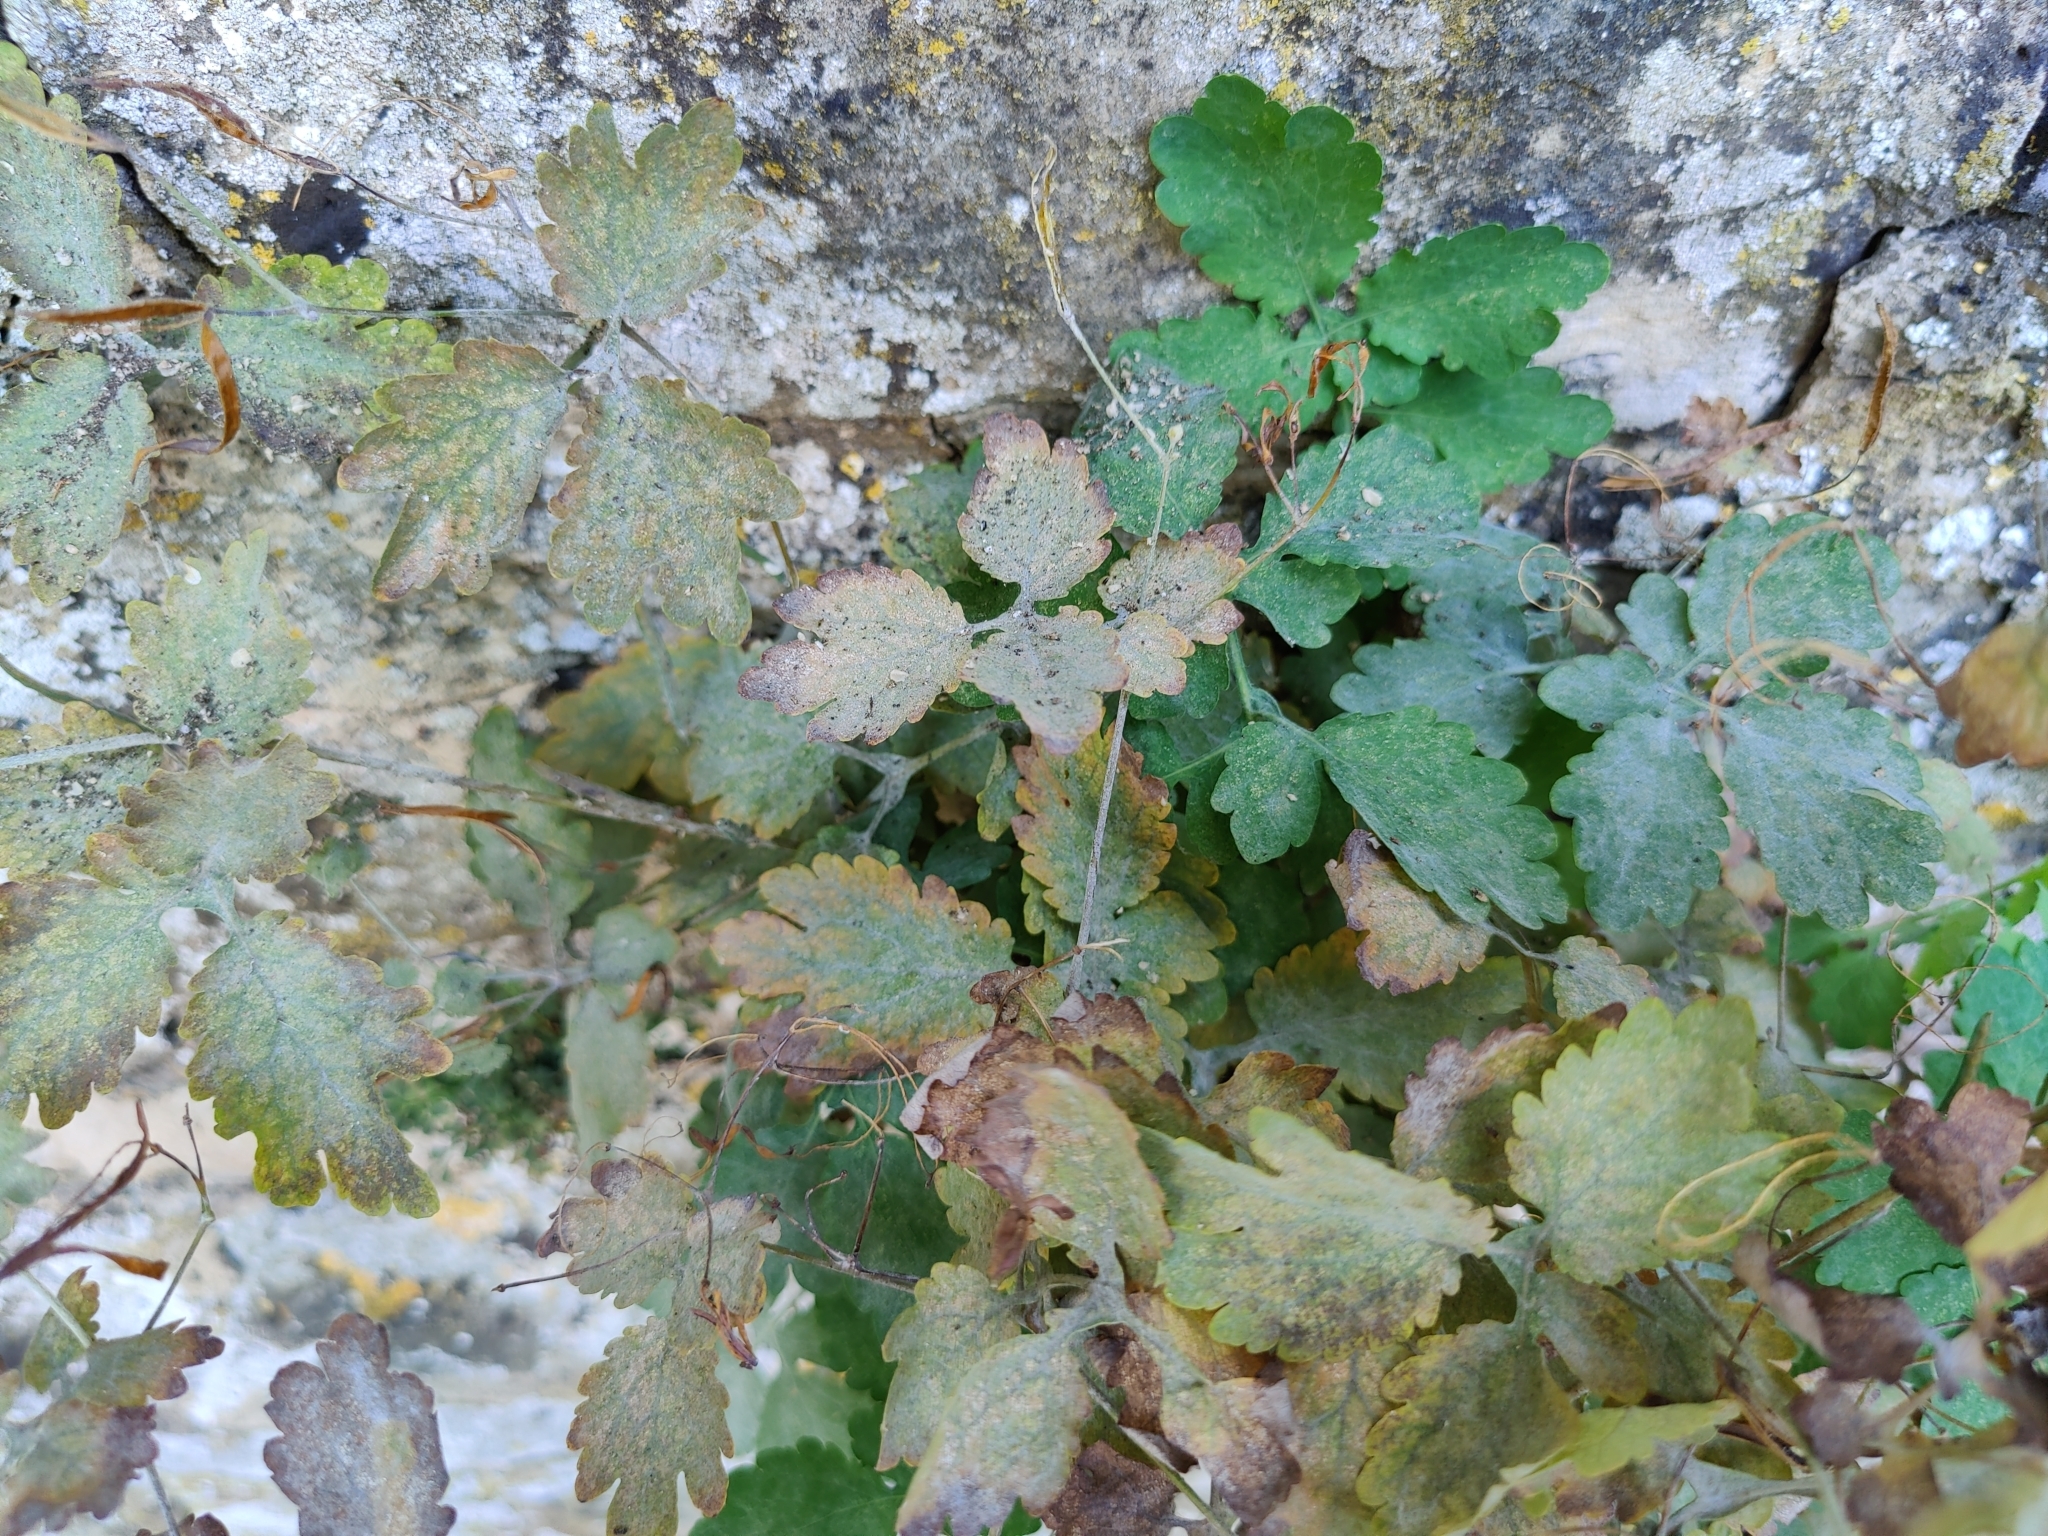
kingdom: Plantae
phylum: Tracheophyta
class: Magnoliopsida
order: Ranunculales
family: Papaveraceae
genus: Chelidonium
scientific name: Chelidonium majus
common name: Greater celandine
